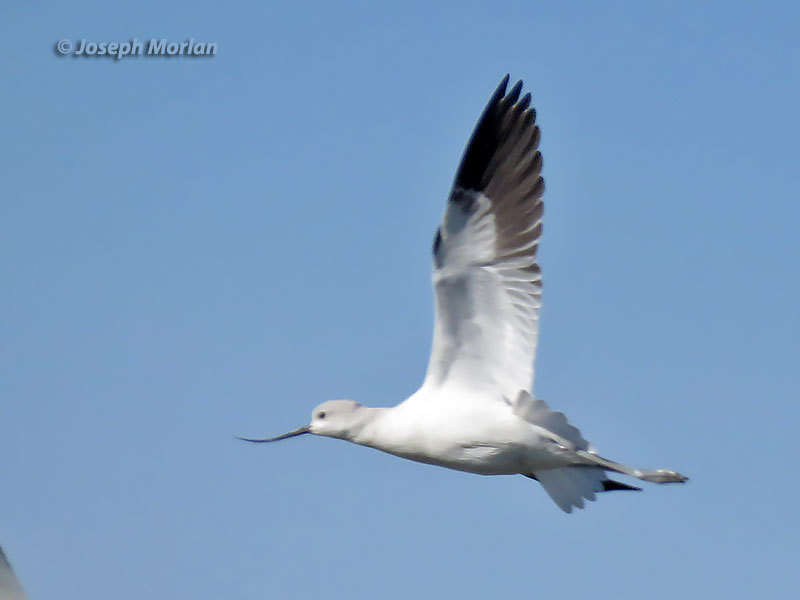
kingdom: Animalia
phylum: Chordata
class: Aves
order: Charadriiformes
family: Recurvirostridae
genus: Recurvirostra
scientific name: Recurvirostra americana
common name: American avocet
